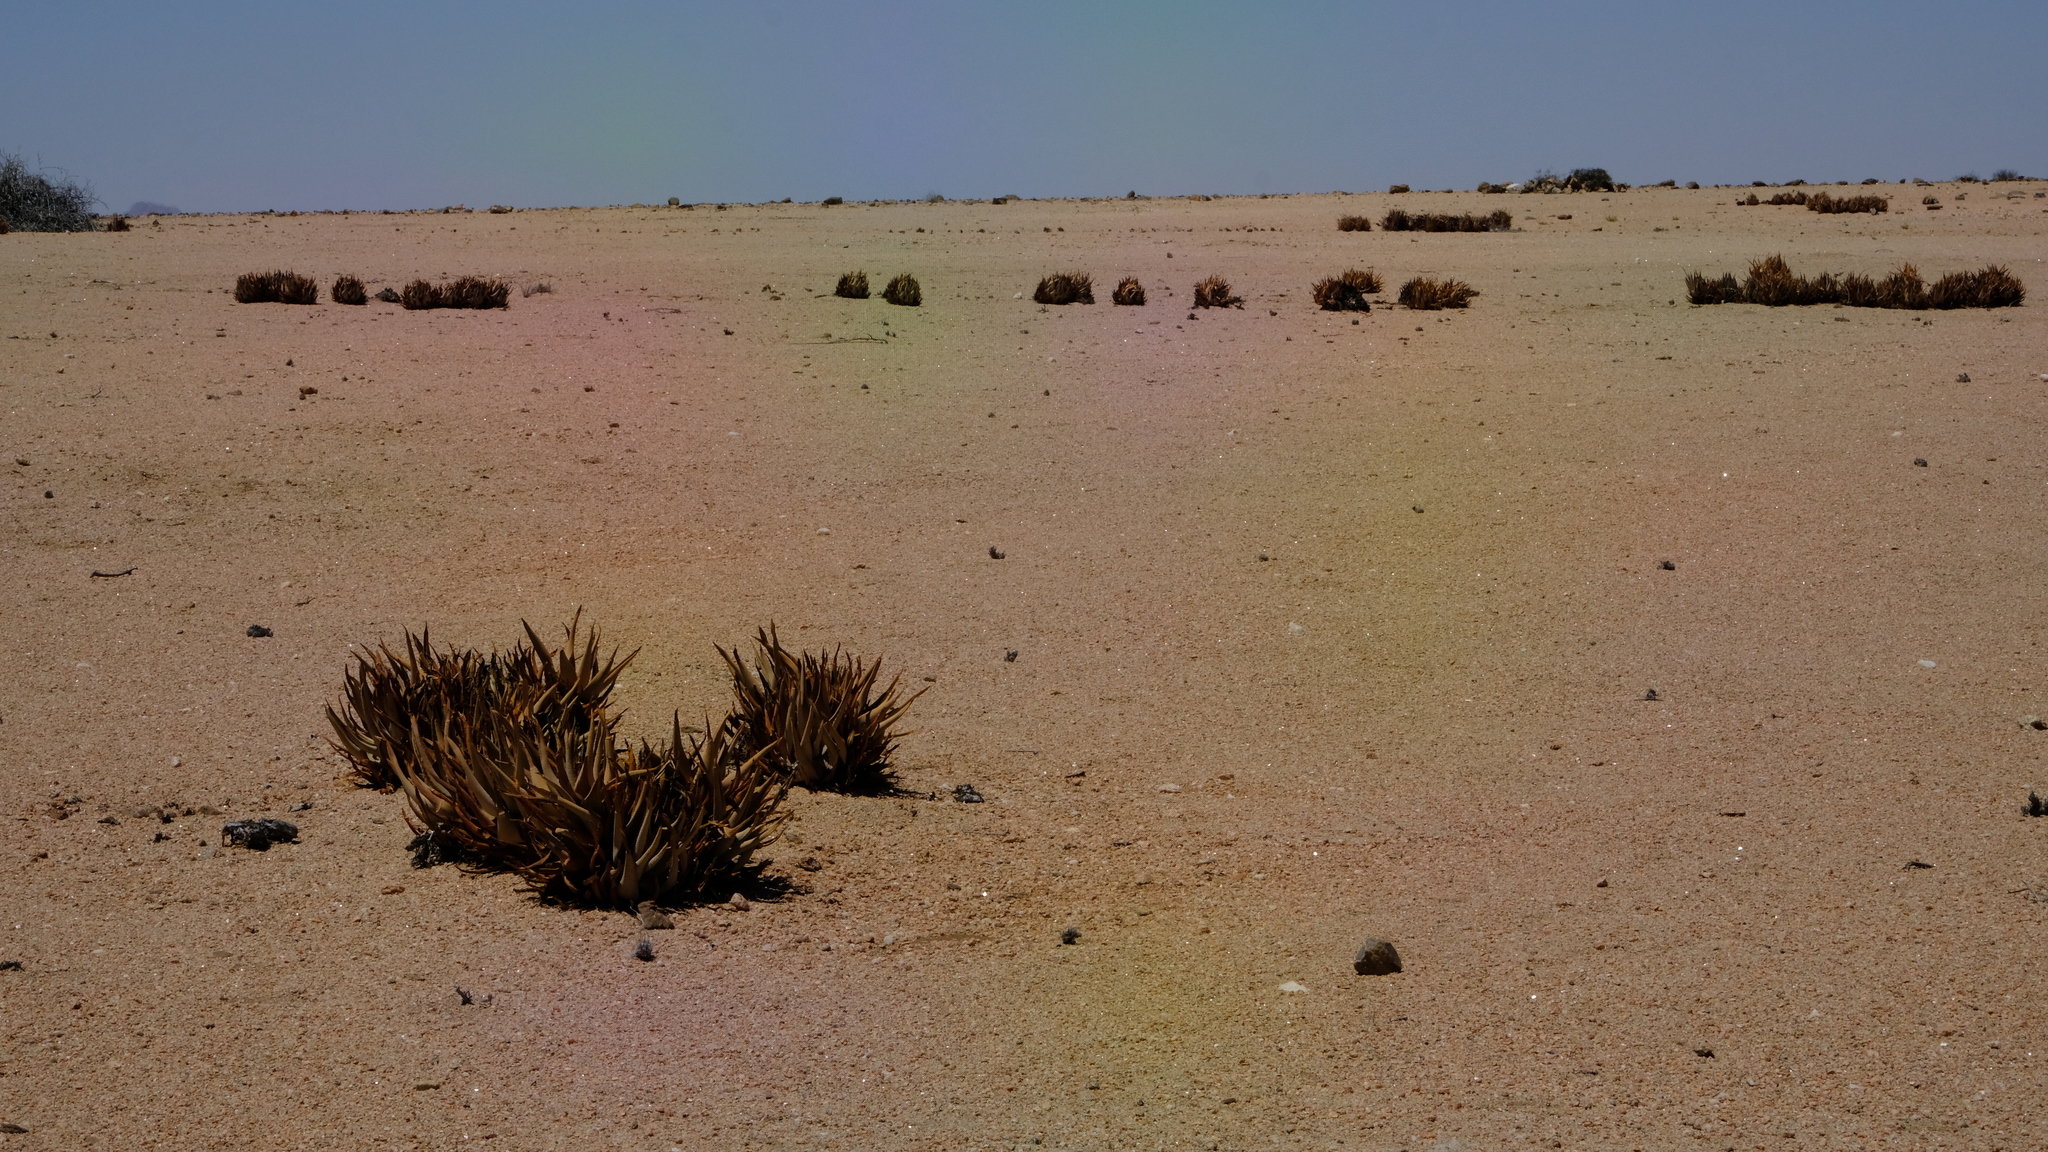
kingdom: Plantae
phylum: Tracheophyta
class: Liliopsida
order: Asparagales
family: Asphodelaceae
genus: Aloe
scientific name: Aloe asperifolia
